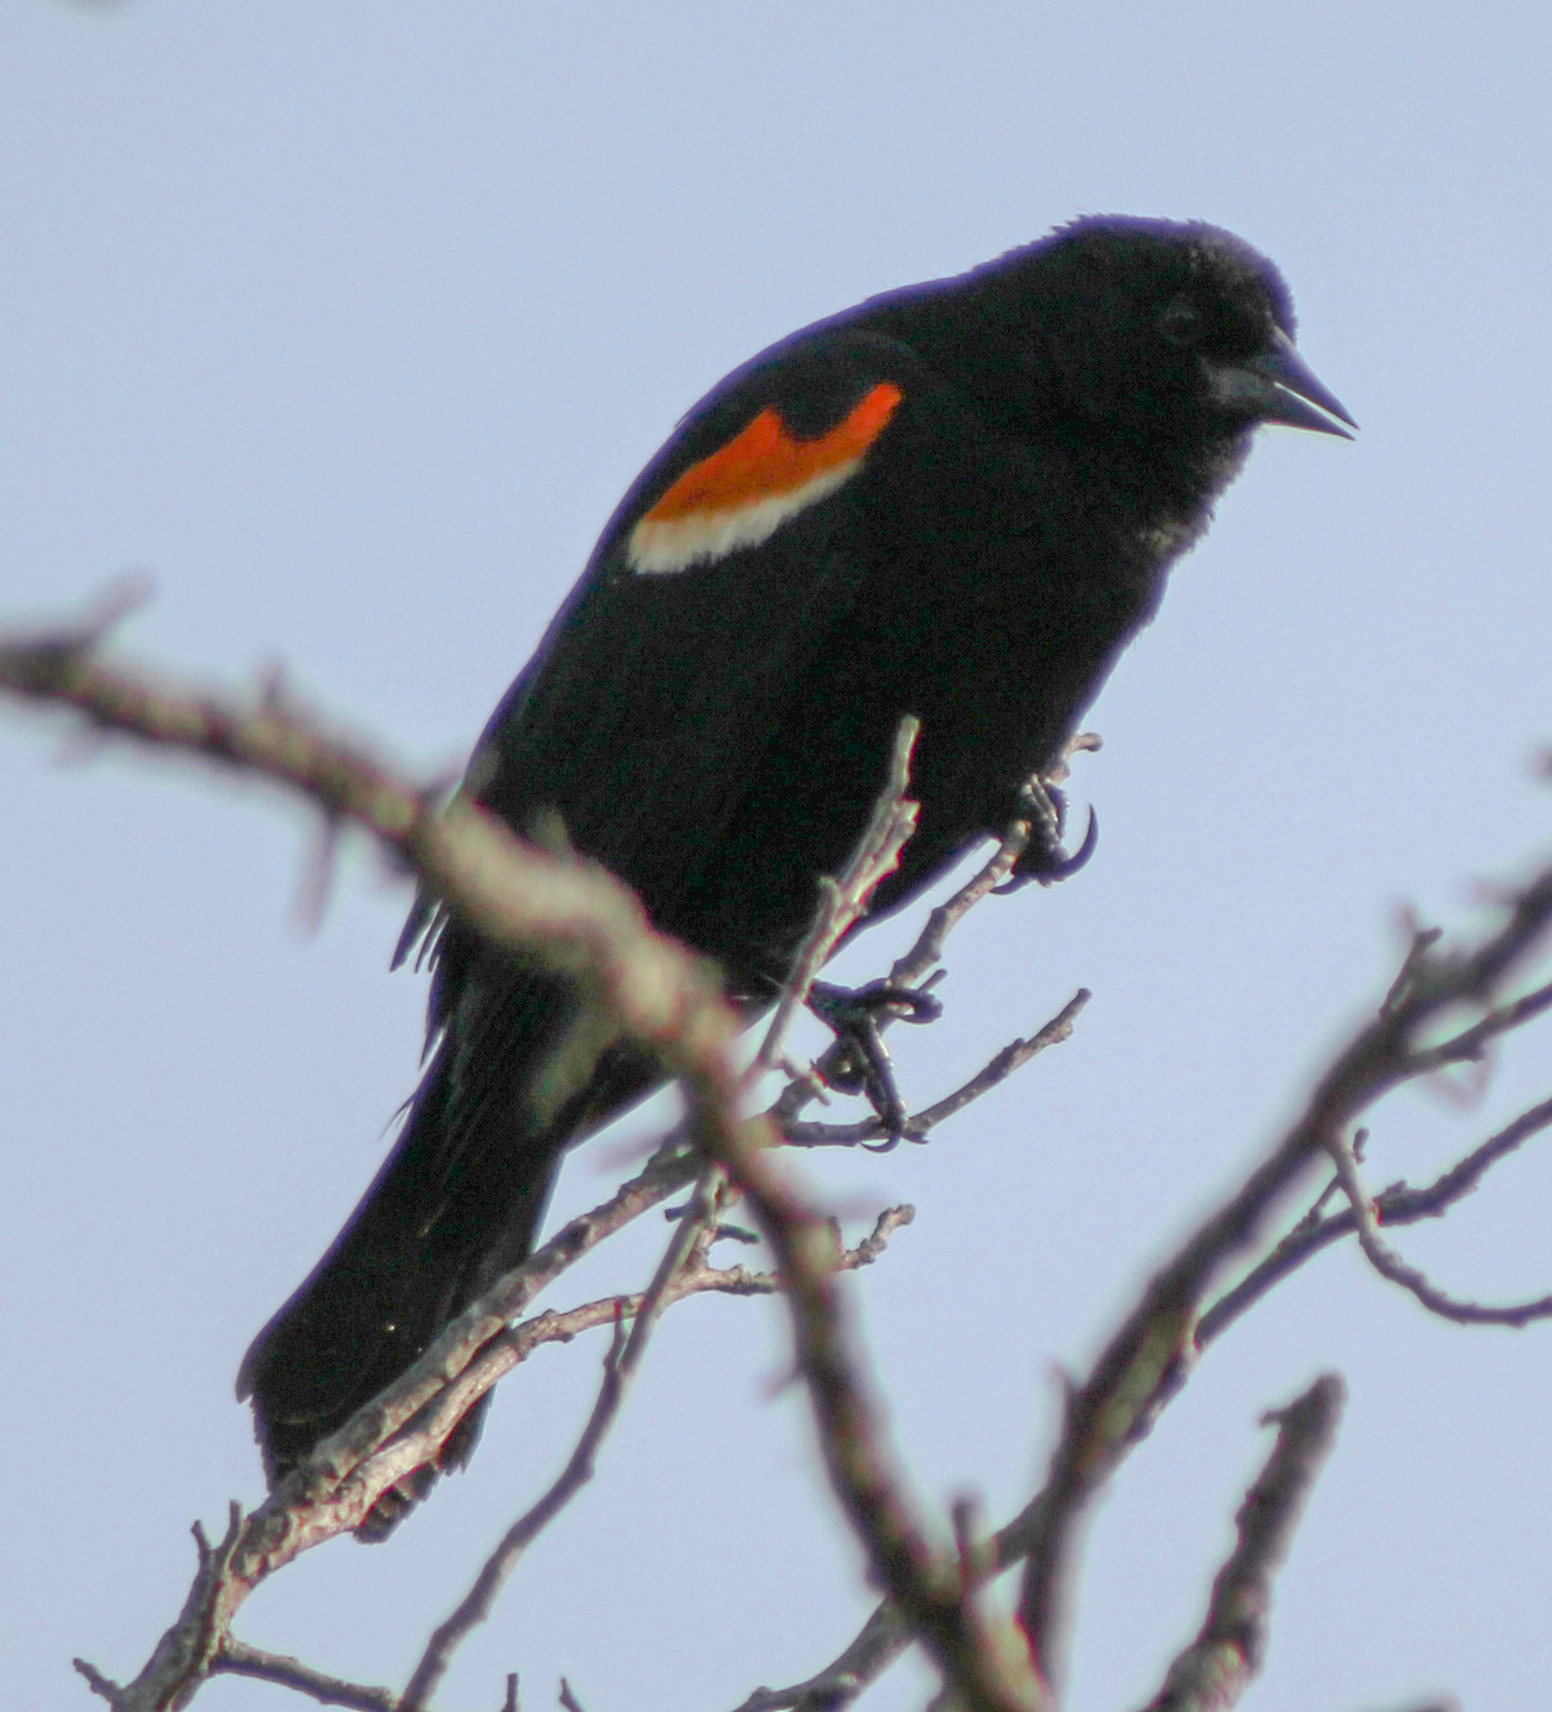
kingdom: Animalia
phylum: Chordata
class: Aves
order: Passeriformes
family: Icteridae
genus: Agelaius
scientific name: Agelaius phoeniceus
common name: Red-winged blackbird
